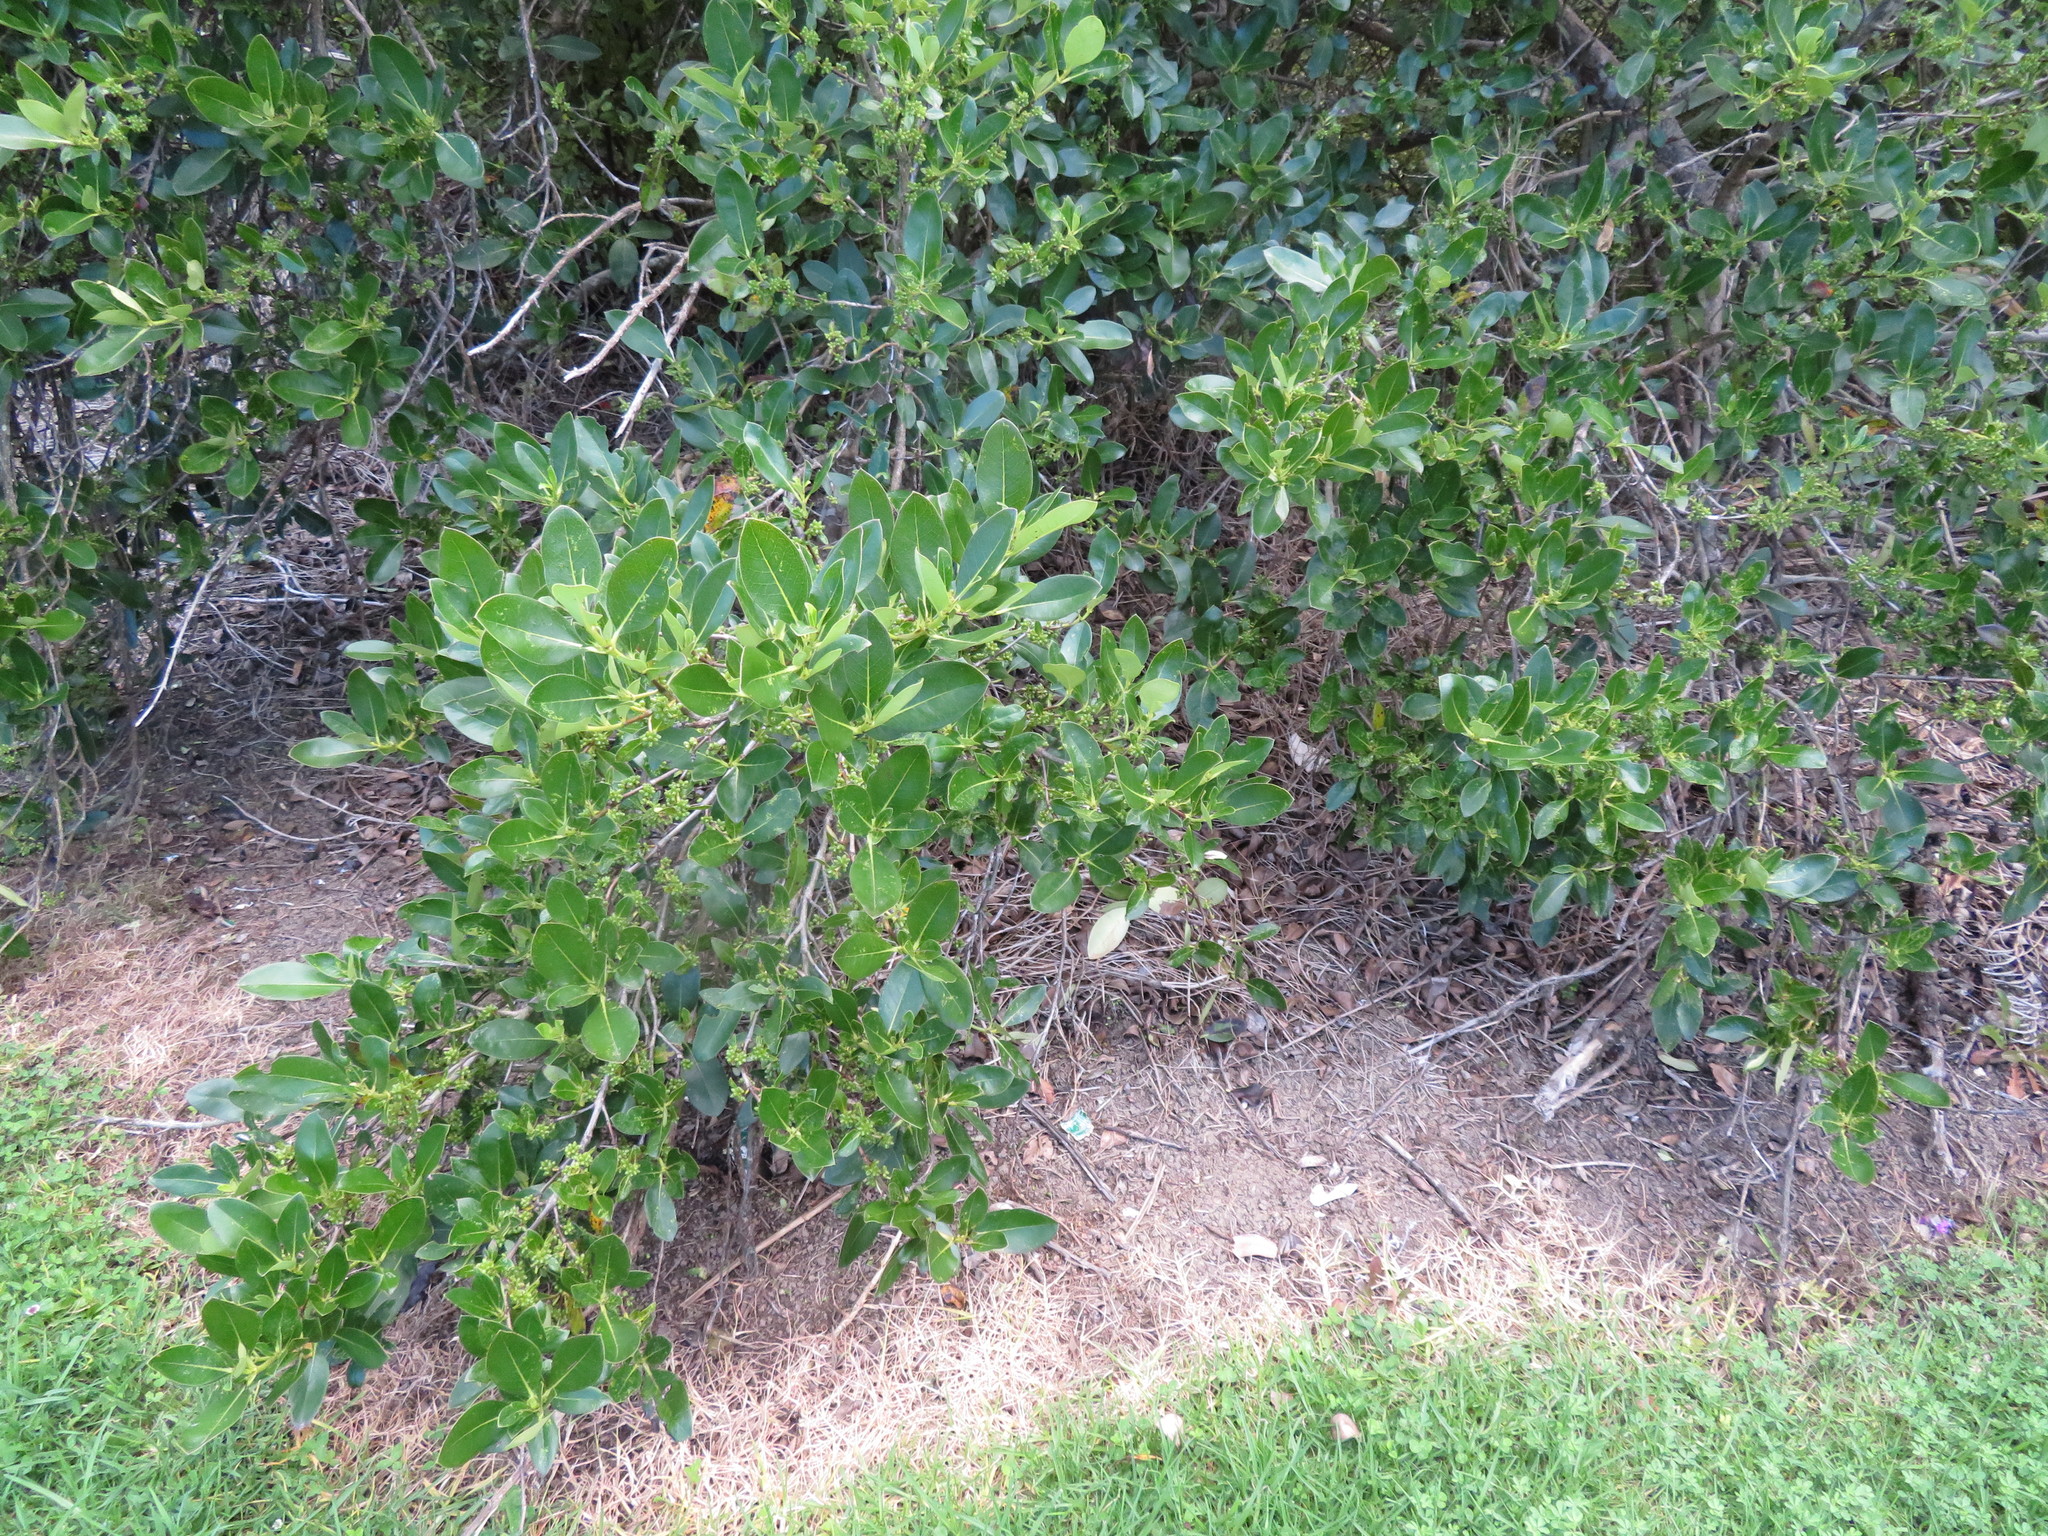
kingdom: Plantae
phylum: Tracheophyta
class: Magnoliopsida
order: Gentianales
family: Rubiaceae
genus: Coprosma
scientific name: Coprosma robusta
